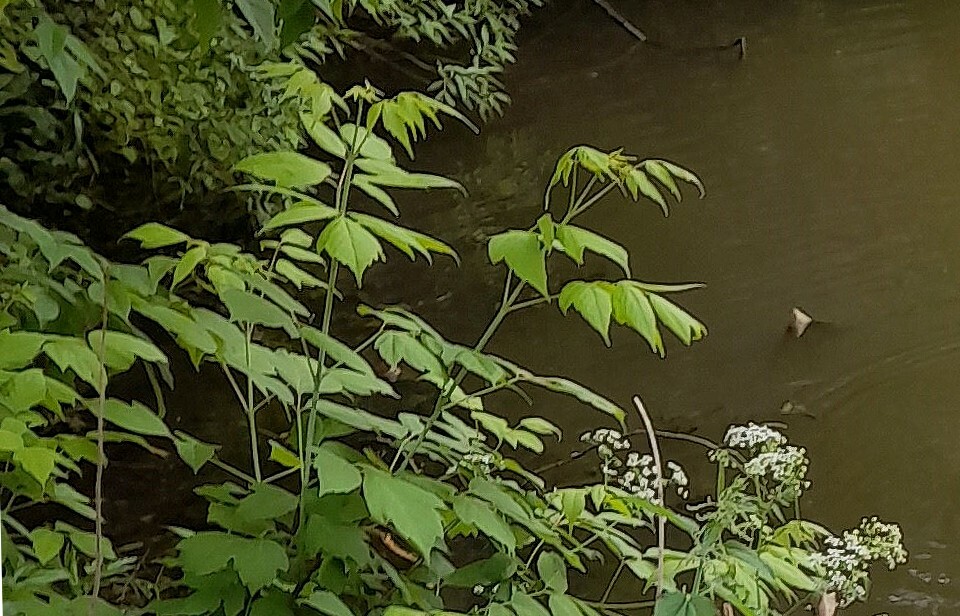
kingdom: Plantae
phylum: Tracheophyta
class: Magnoliopsida
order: Sapindales
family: Sapindaceae
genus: Acer
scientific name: Acer negundo
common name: Ashleaf maple
